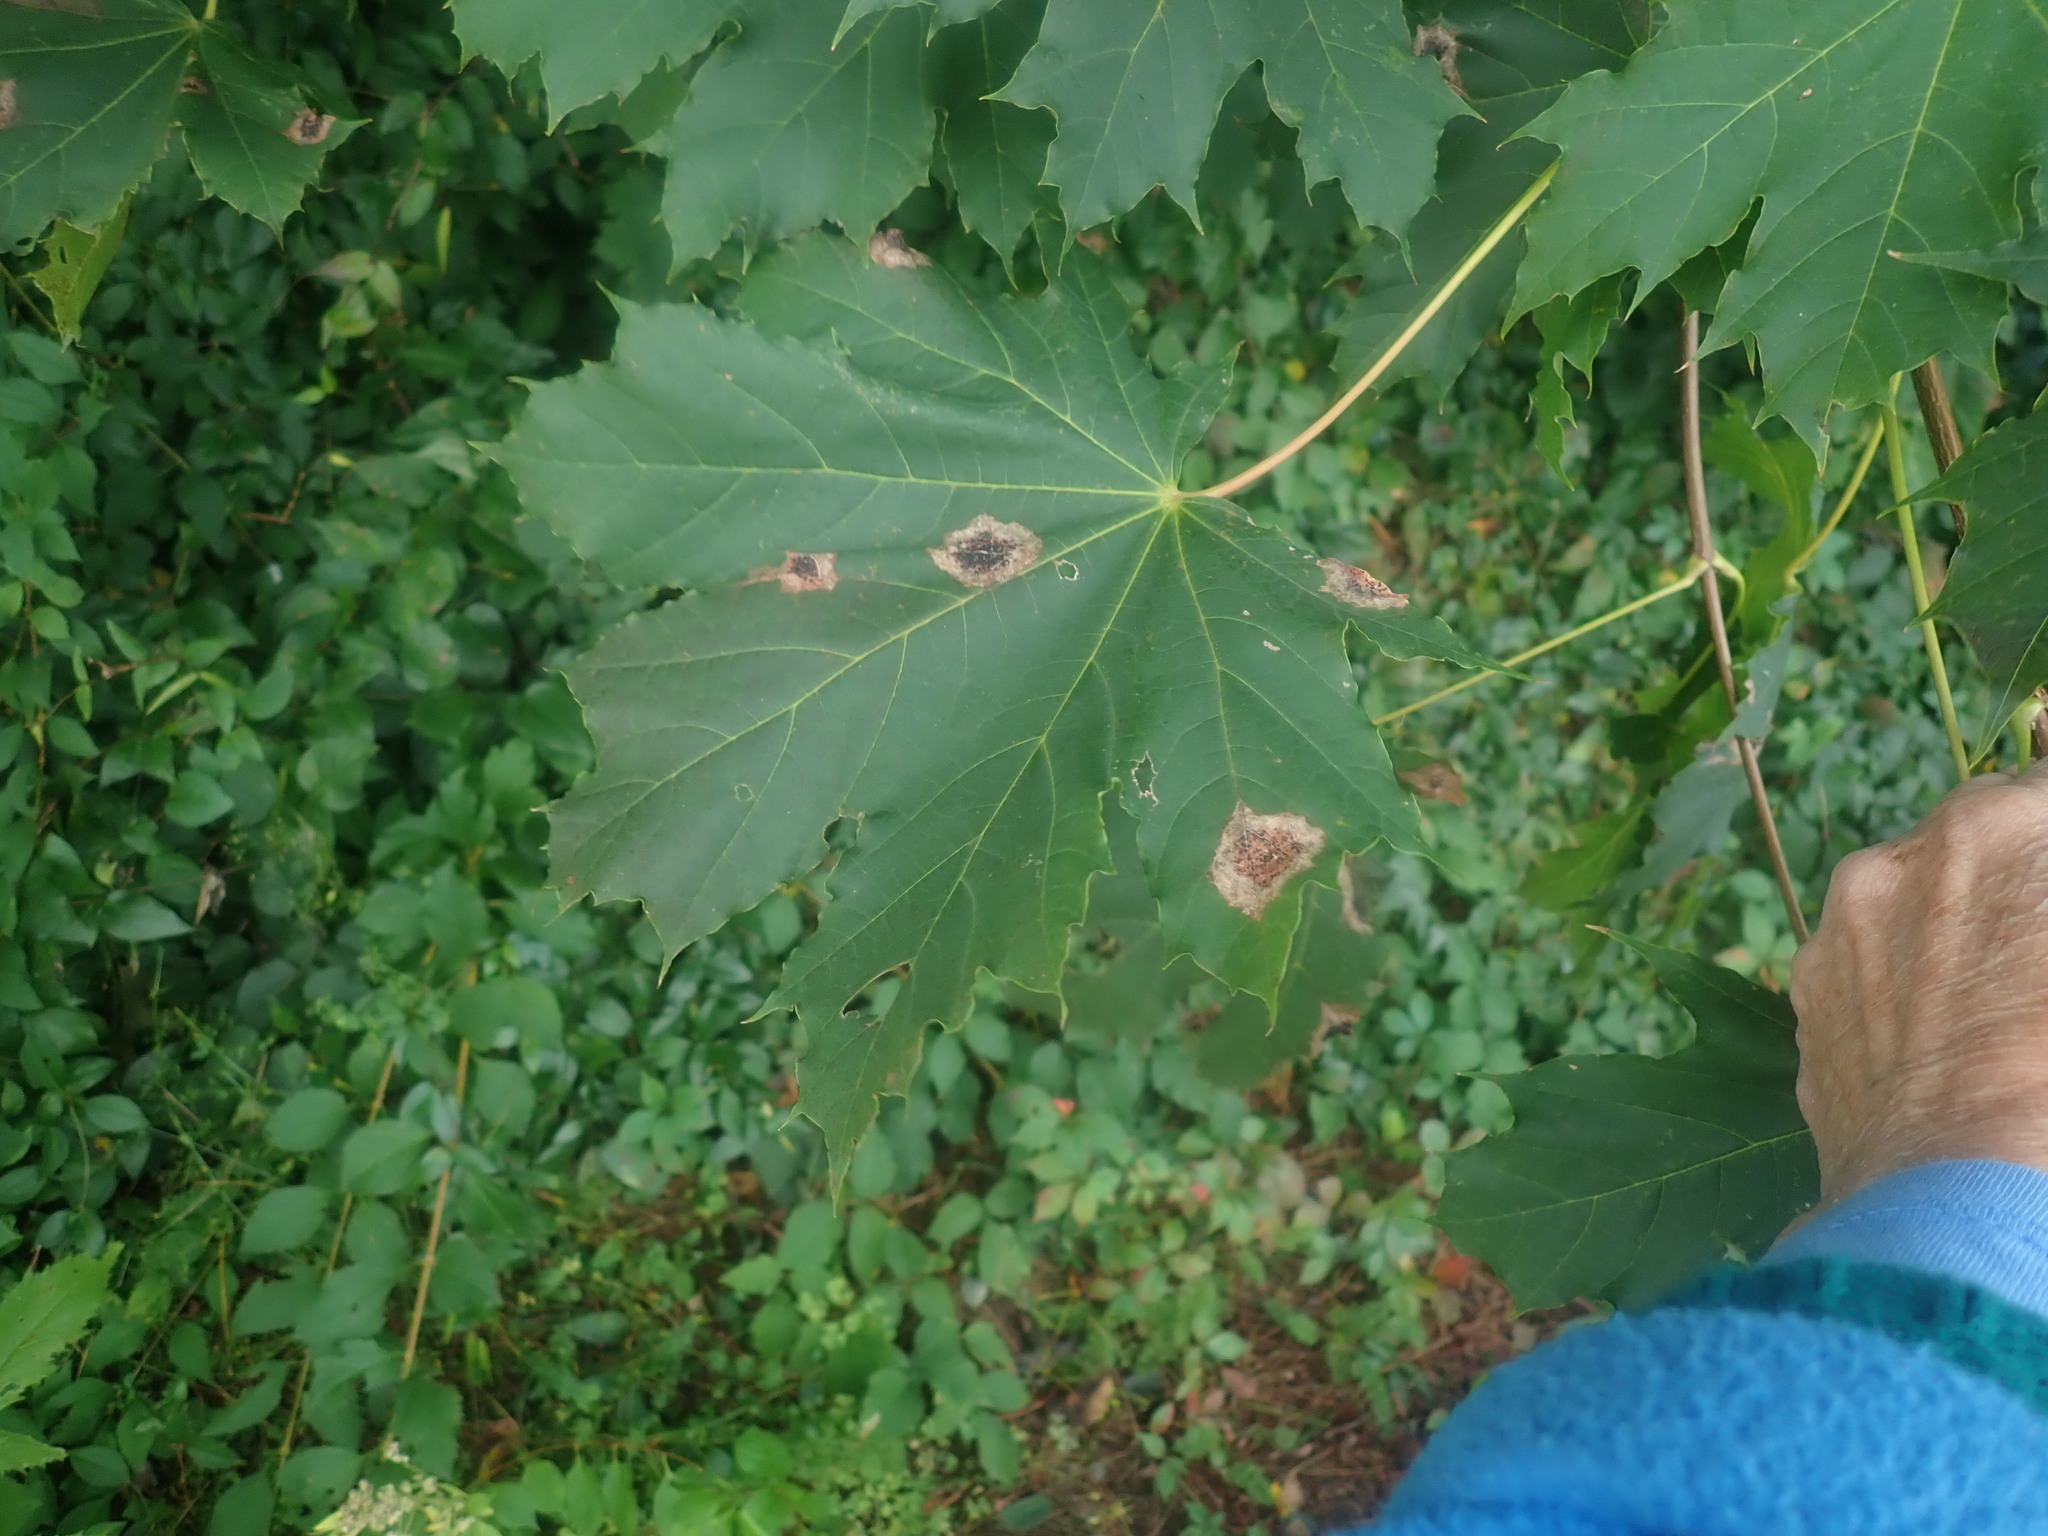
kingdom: Plantae
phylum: Tracheophyta
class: Magnoliopsida
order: Sapindales
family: Sapindaceae
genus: Acer
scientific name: Acer platanoides
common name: Norway maple
